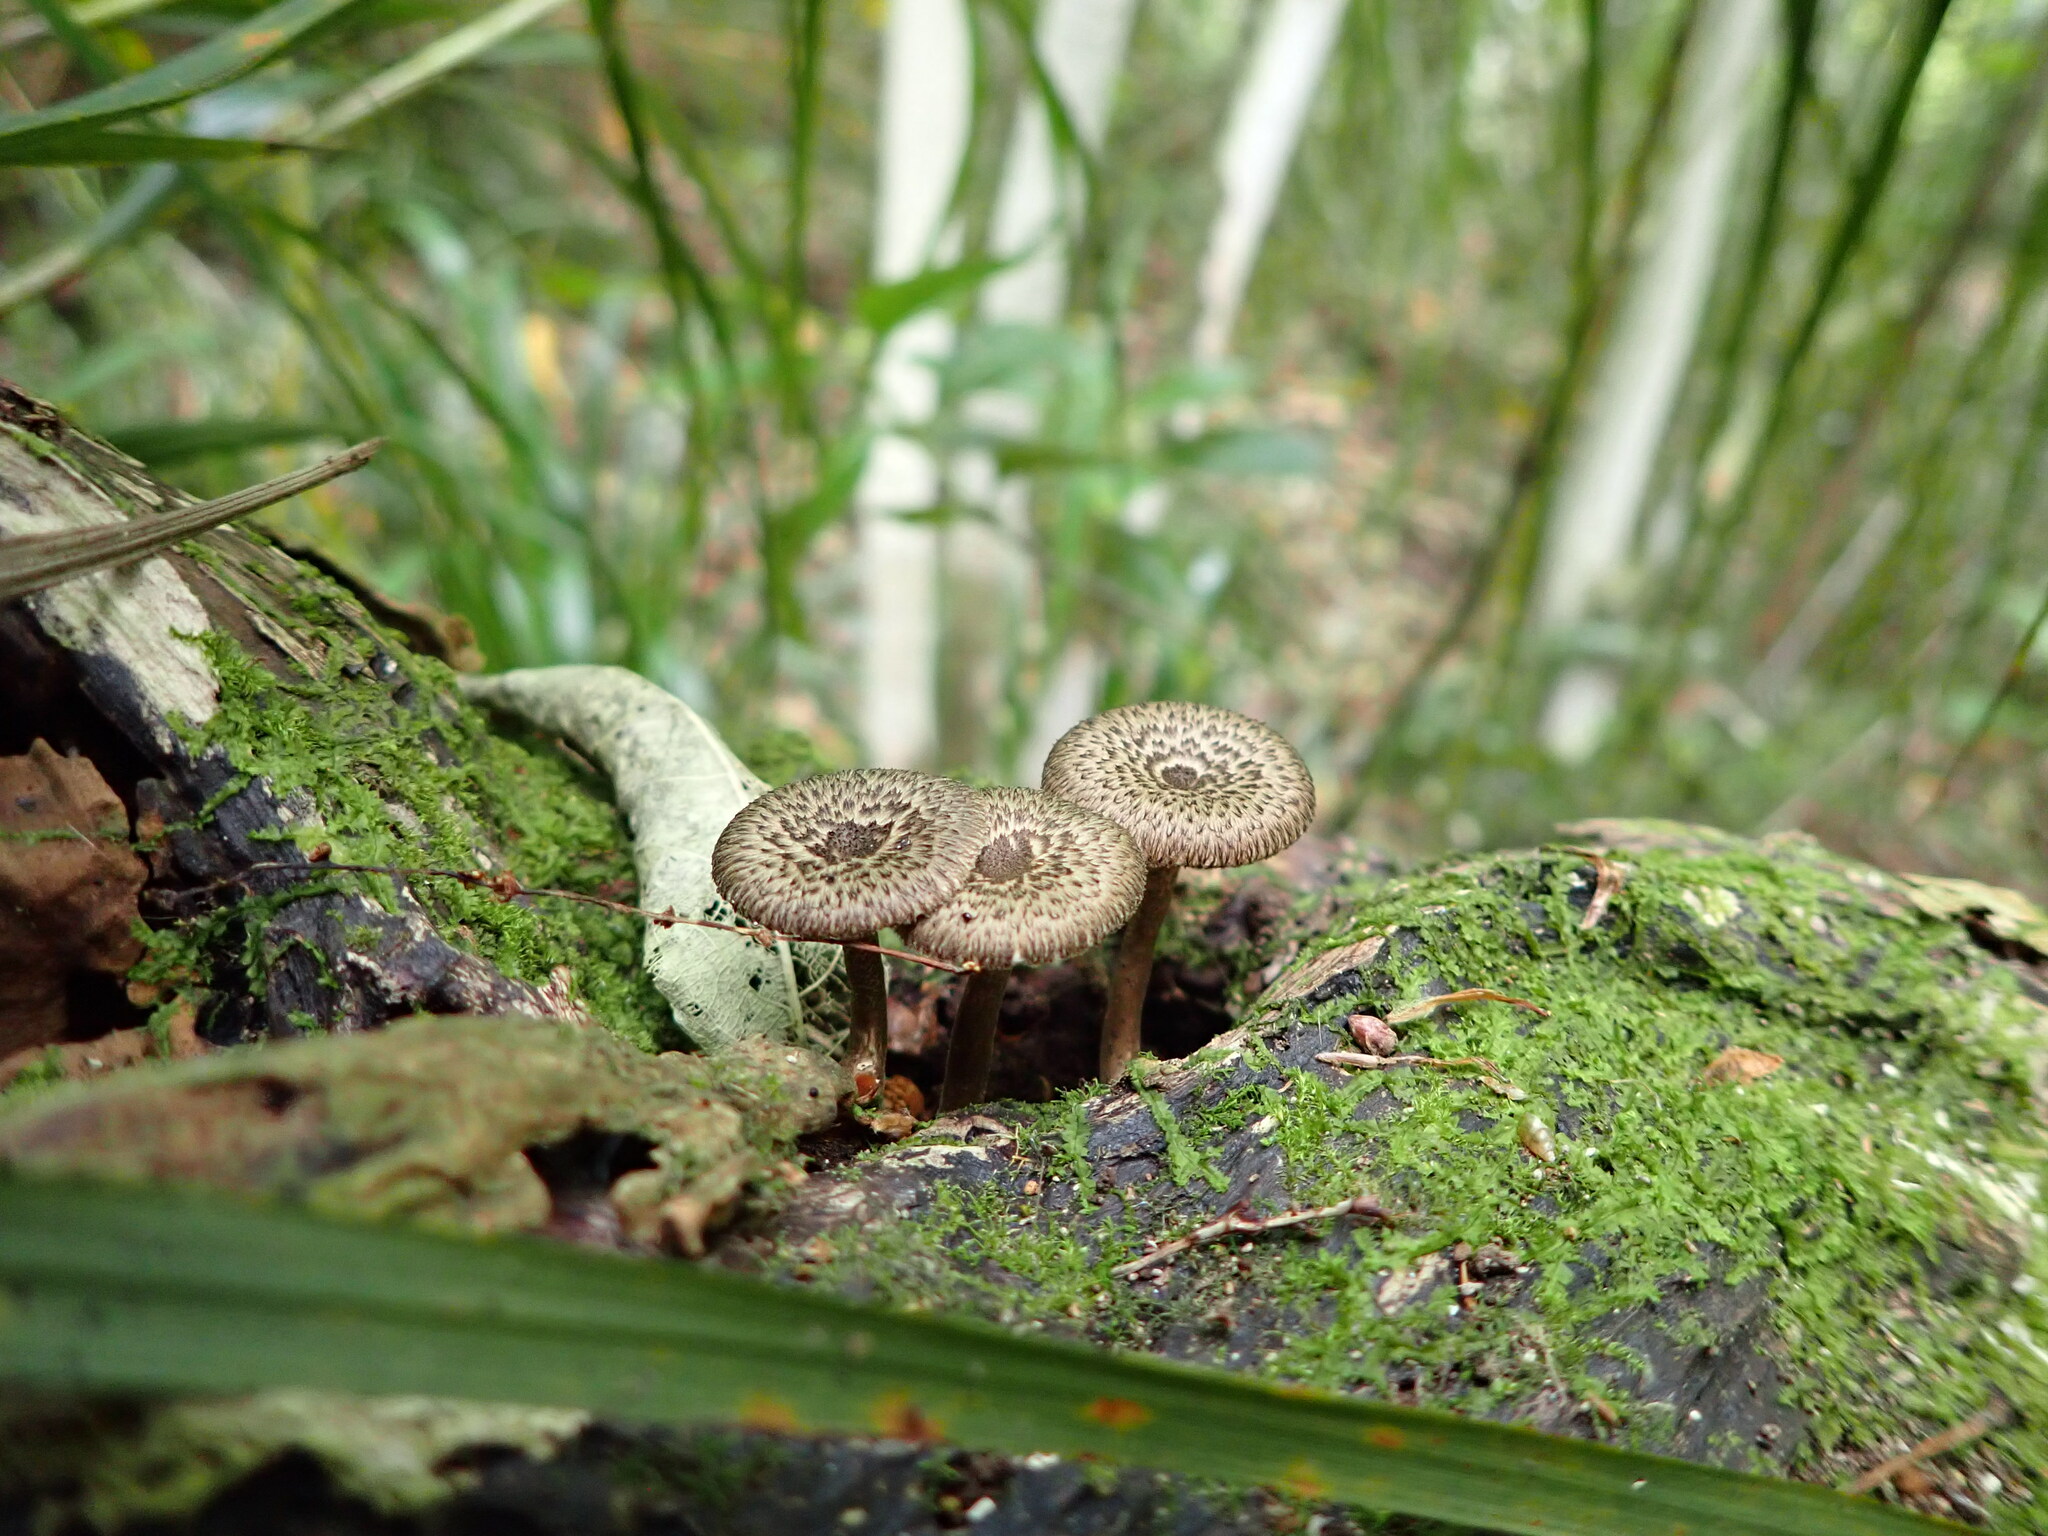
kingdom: Fungi
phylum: Basidiomycota
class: Agaricomycetes
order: Polyporales
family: Polyporaceae
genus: Lentinus
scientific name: Lentinus arcularius
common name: Spring polypore
